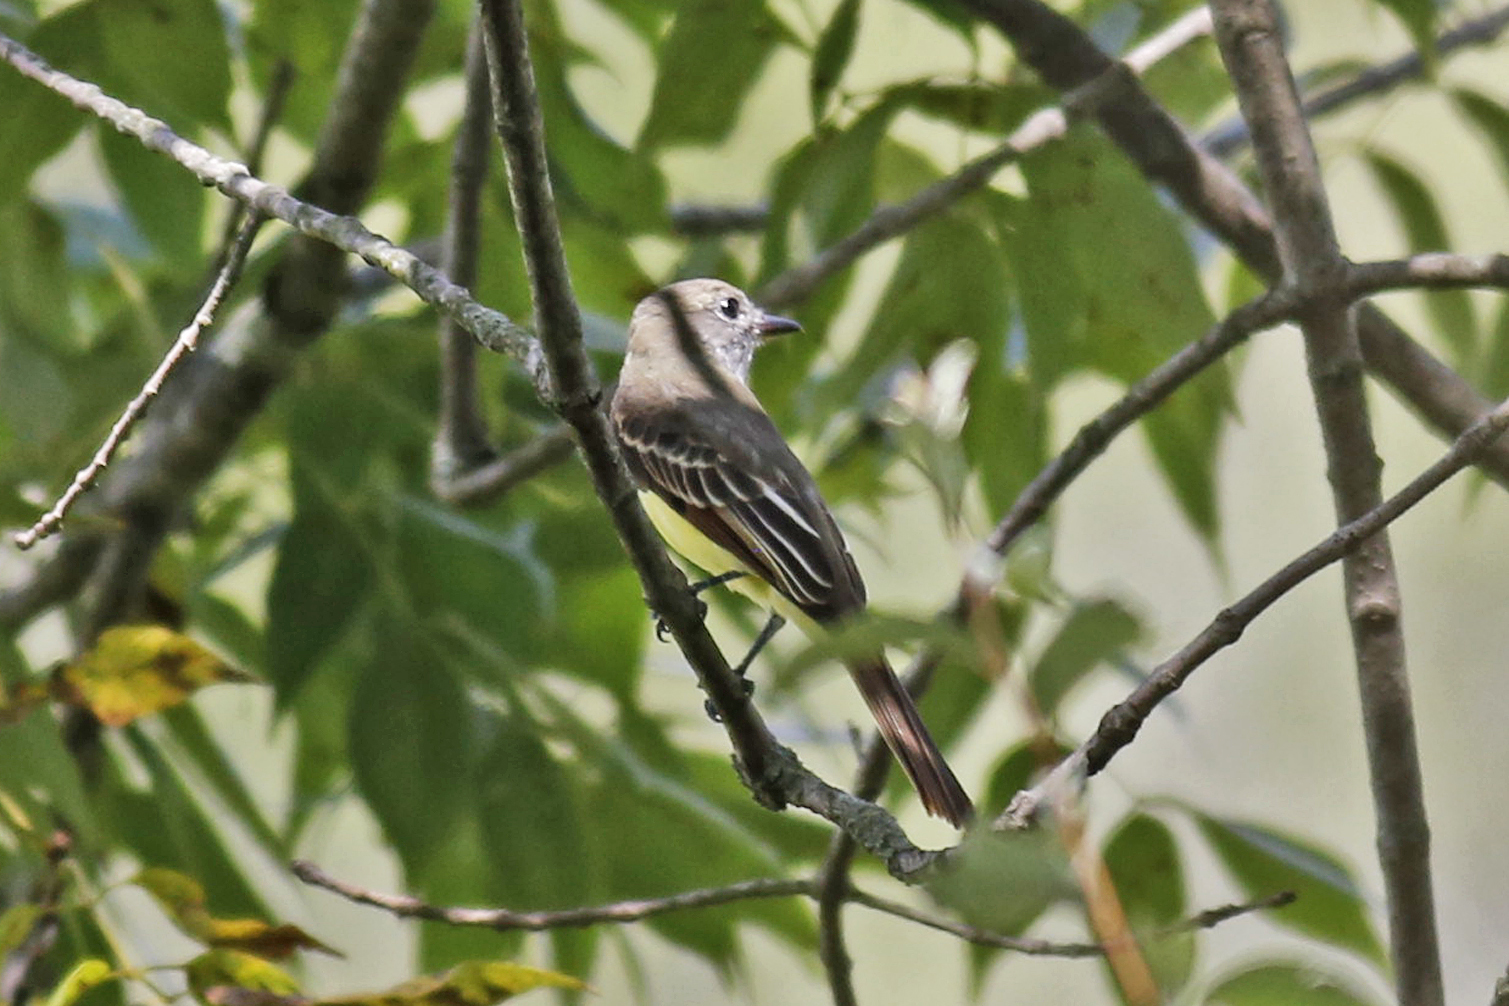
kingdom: Animalia
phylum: Chordata
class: Aves
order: Passeriformes
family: Tyrannidae
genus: Myiarchus
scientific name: Myiarchus crinitus
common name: Great crested flycatcher
